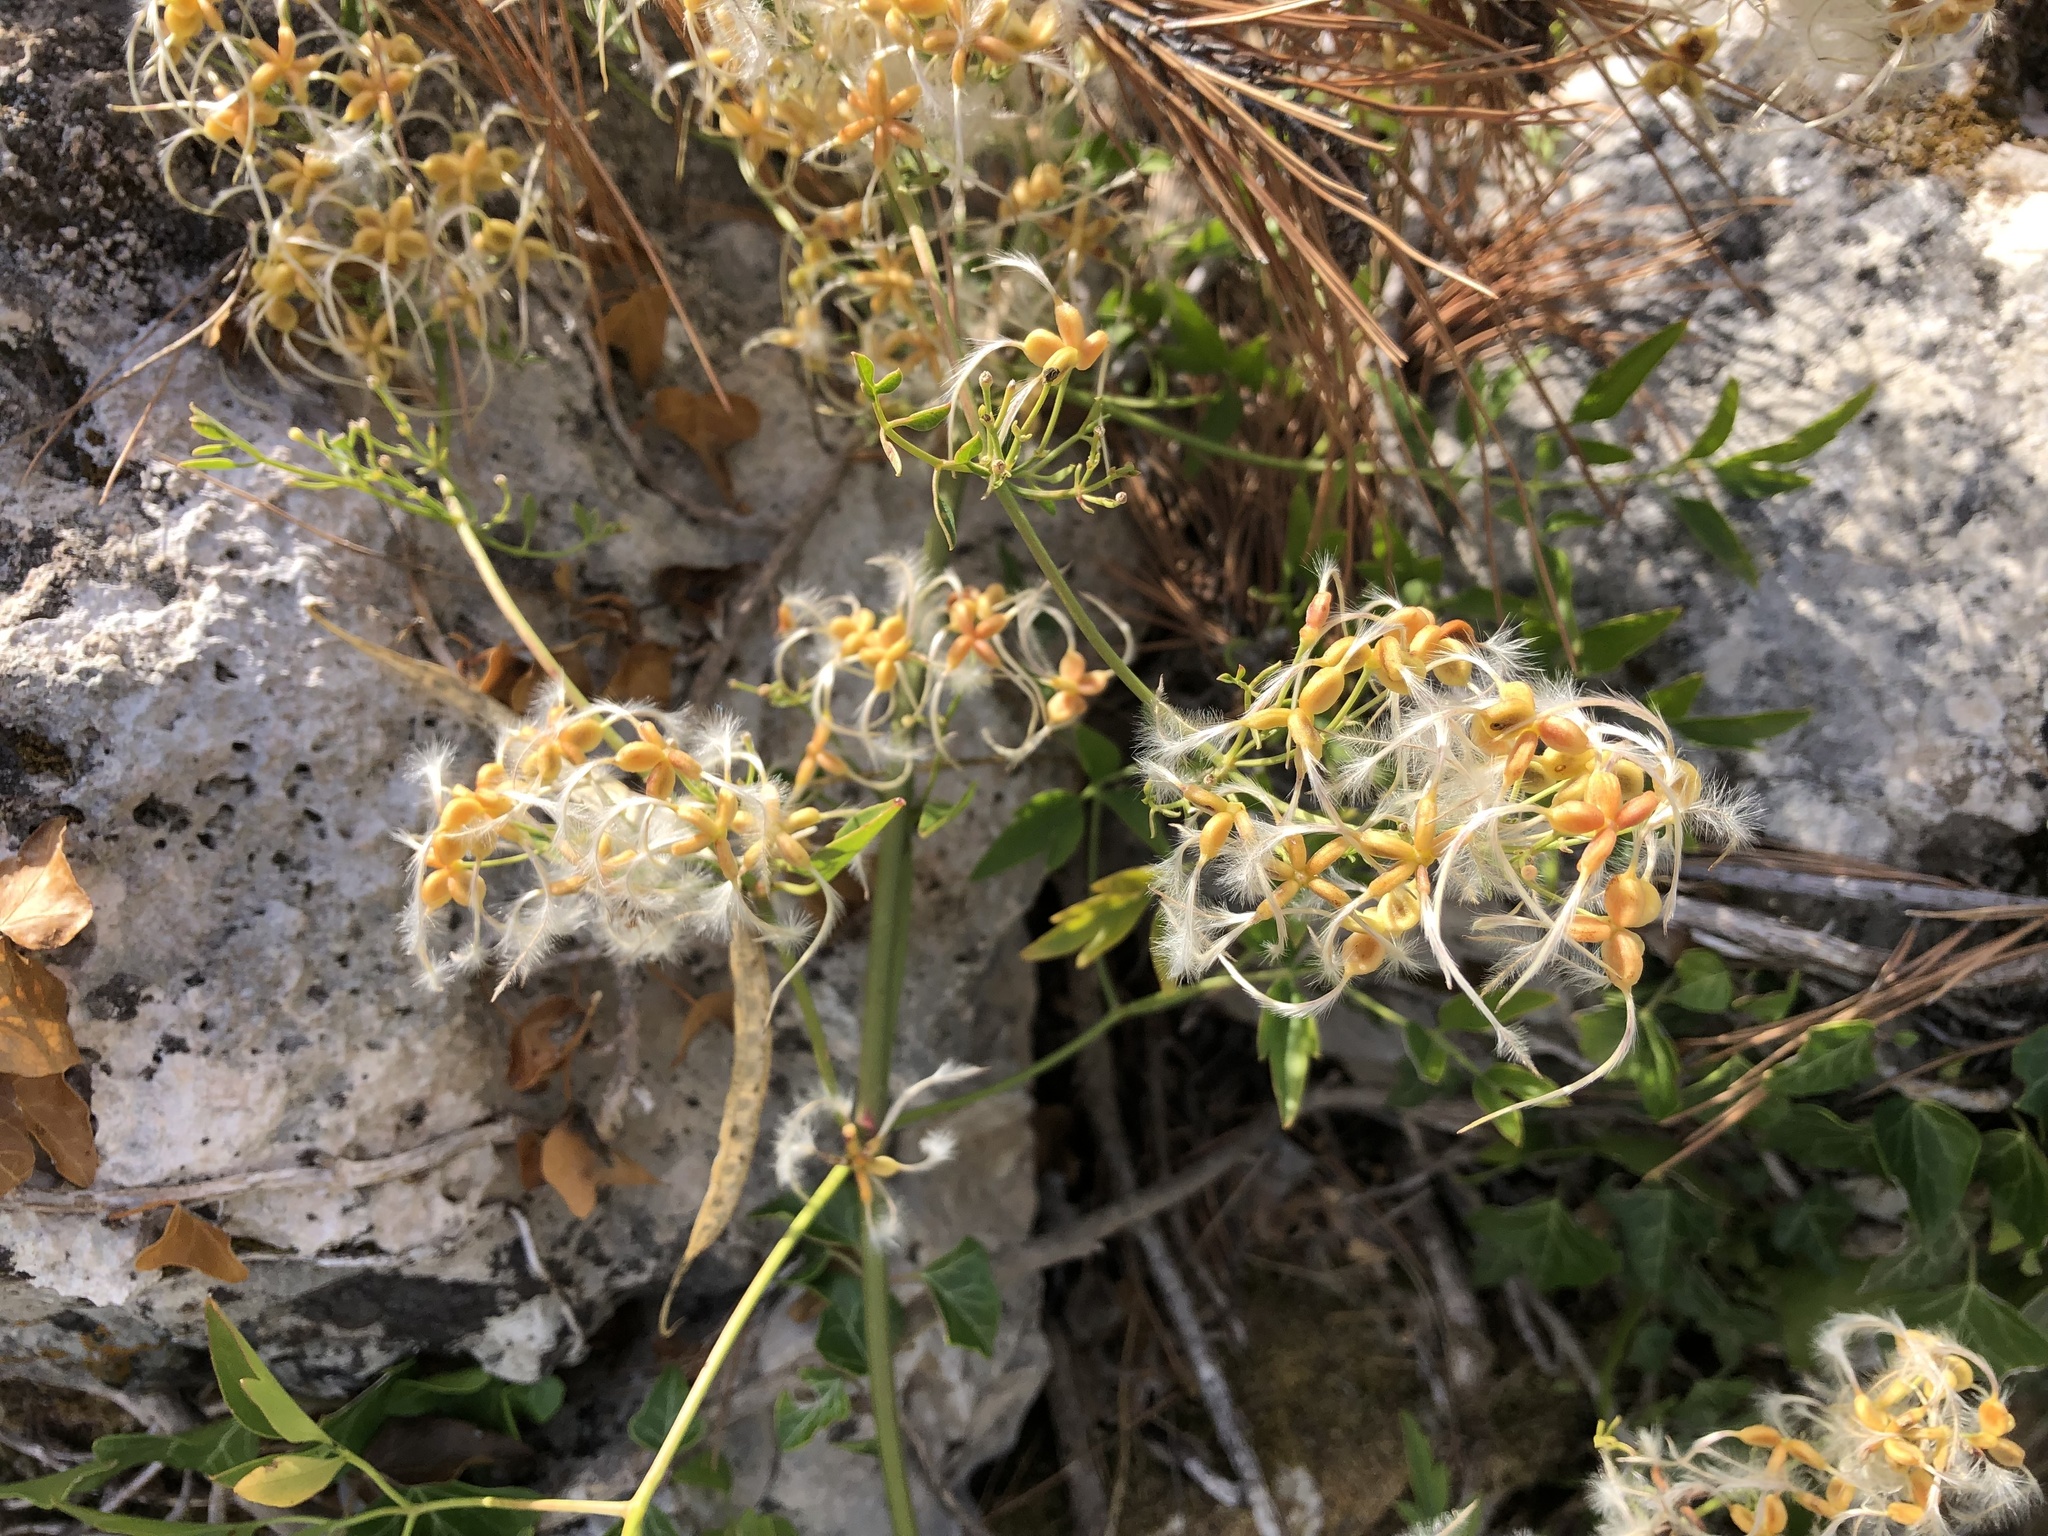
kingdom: Plantae
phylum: Tracheophyta
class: Magnoliopsida
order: Ranunculales
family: Ranunculaceae
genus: Clematis
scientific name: Clematis flammula
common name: Virgin's-bower
